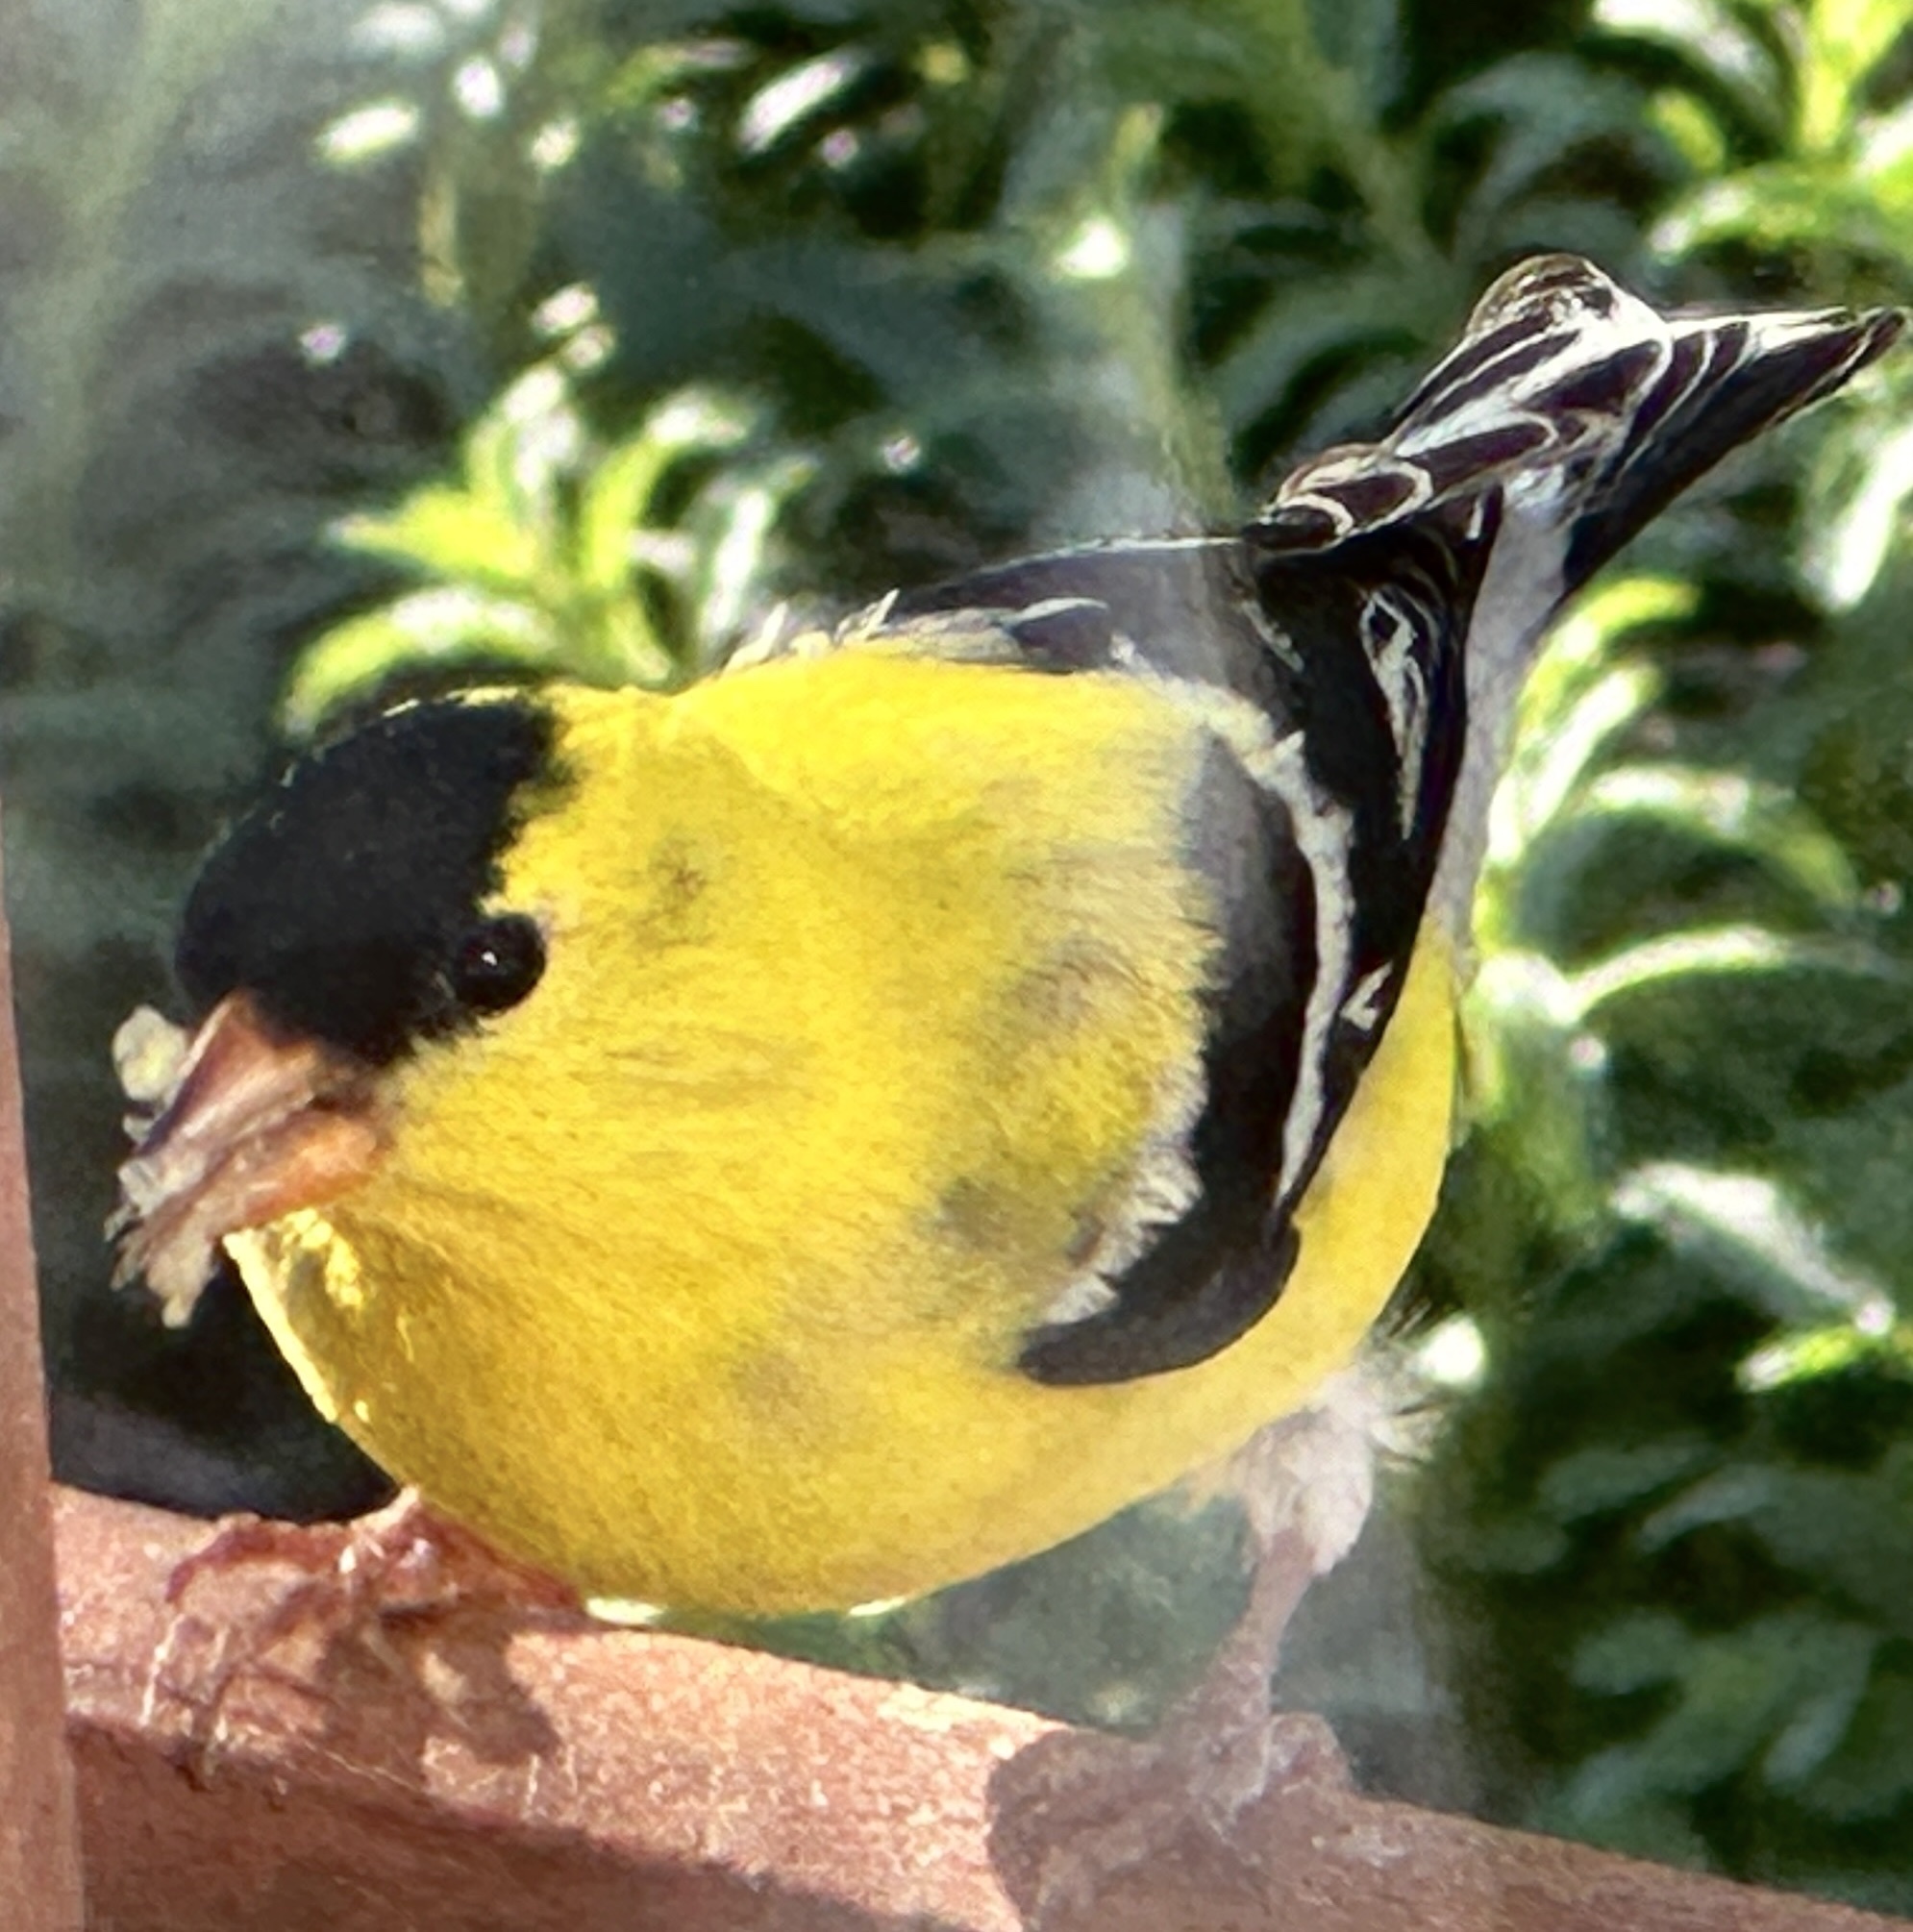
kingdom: Animalia
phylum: Chordata
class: Aves
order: Passeriformes
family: Fringillidae
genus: Spinus
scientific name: Spinus tristis
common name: American goldfinch
